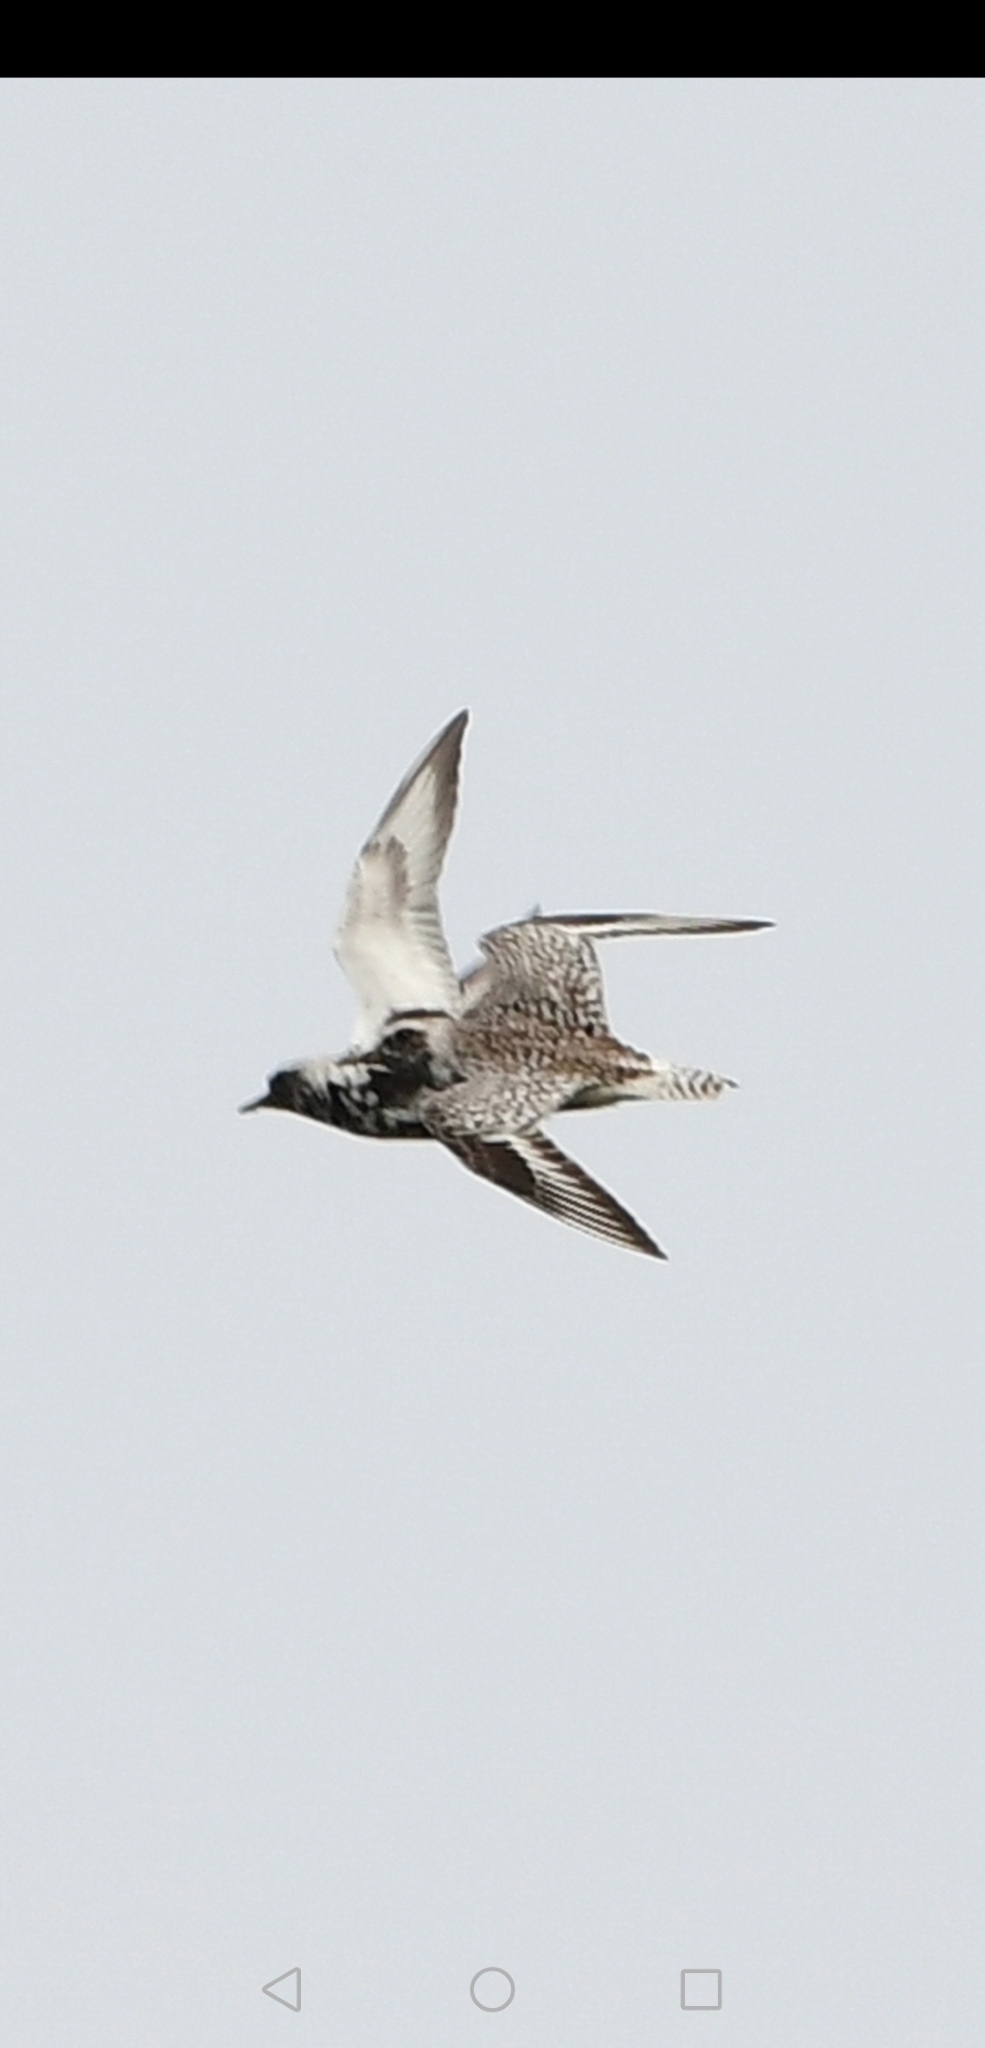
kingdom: Animalia
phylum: Chordata
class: Aves
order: Charadriiformes
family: Charadriidae
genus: Pluvialis
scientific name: Pluvialis squatarola
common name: Grey plover
